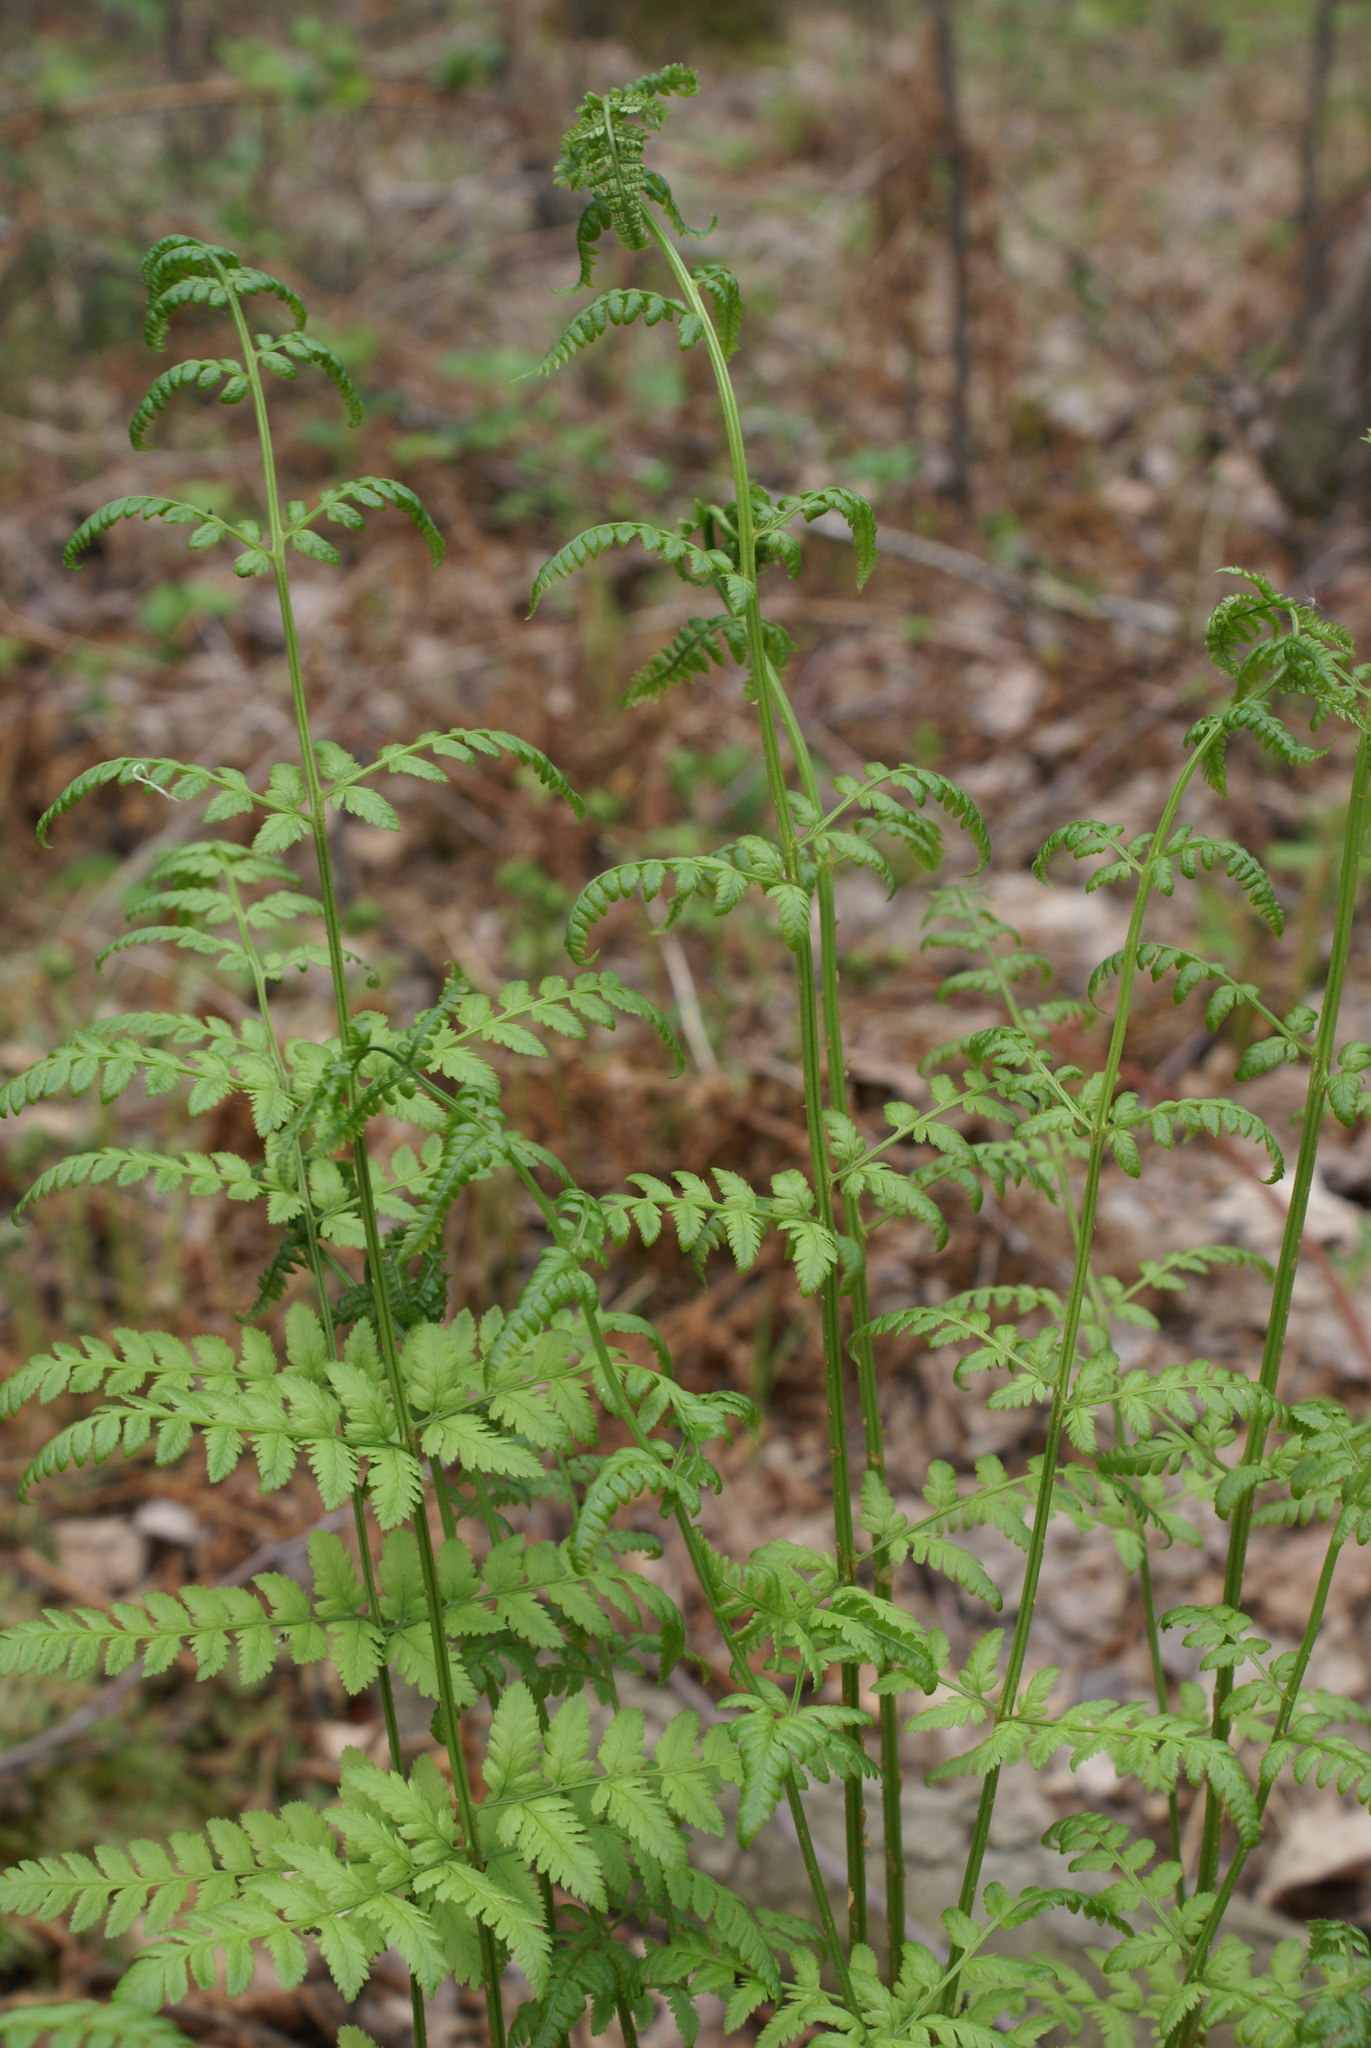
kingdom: Plantae
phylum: Tracheophyta
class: Polypodiopsida
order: Polypodiales
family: Dryopteridaceae
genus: Dryopteris
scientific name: Dryopteris carthusiana
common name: Narrow buckler-fern
